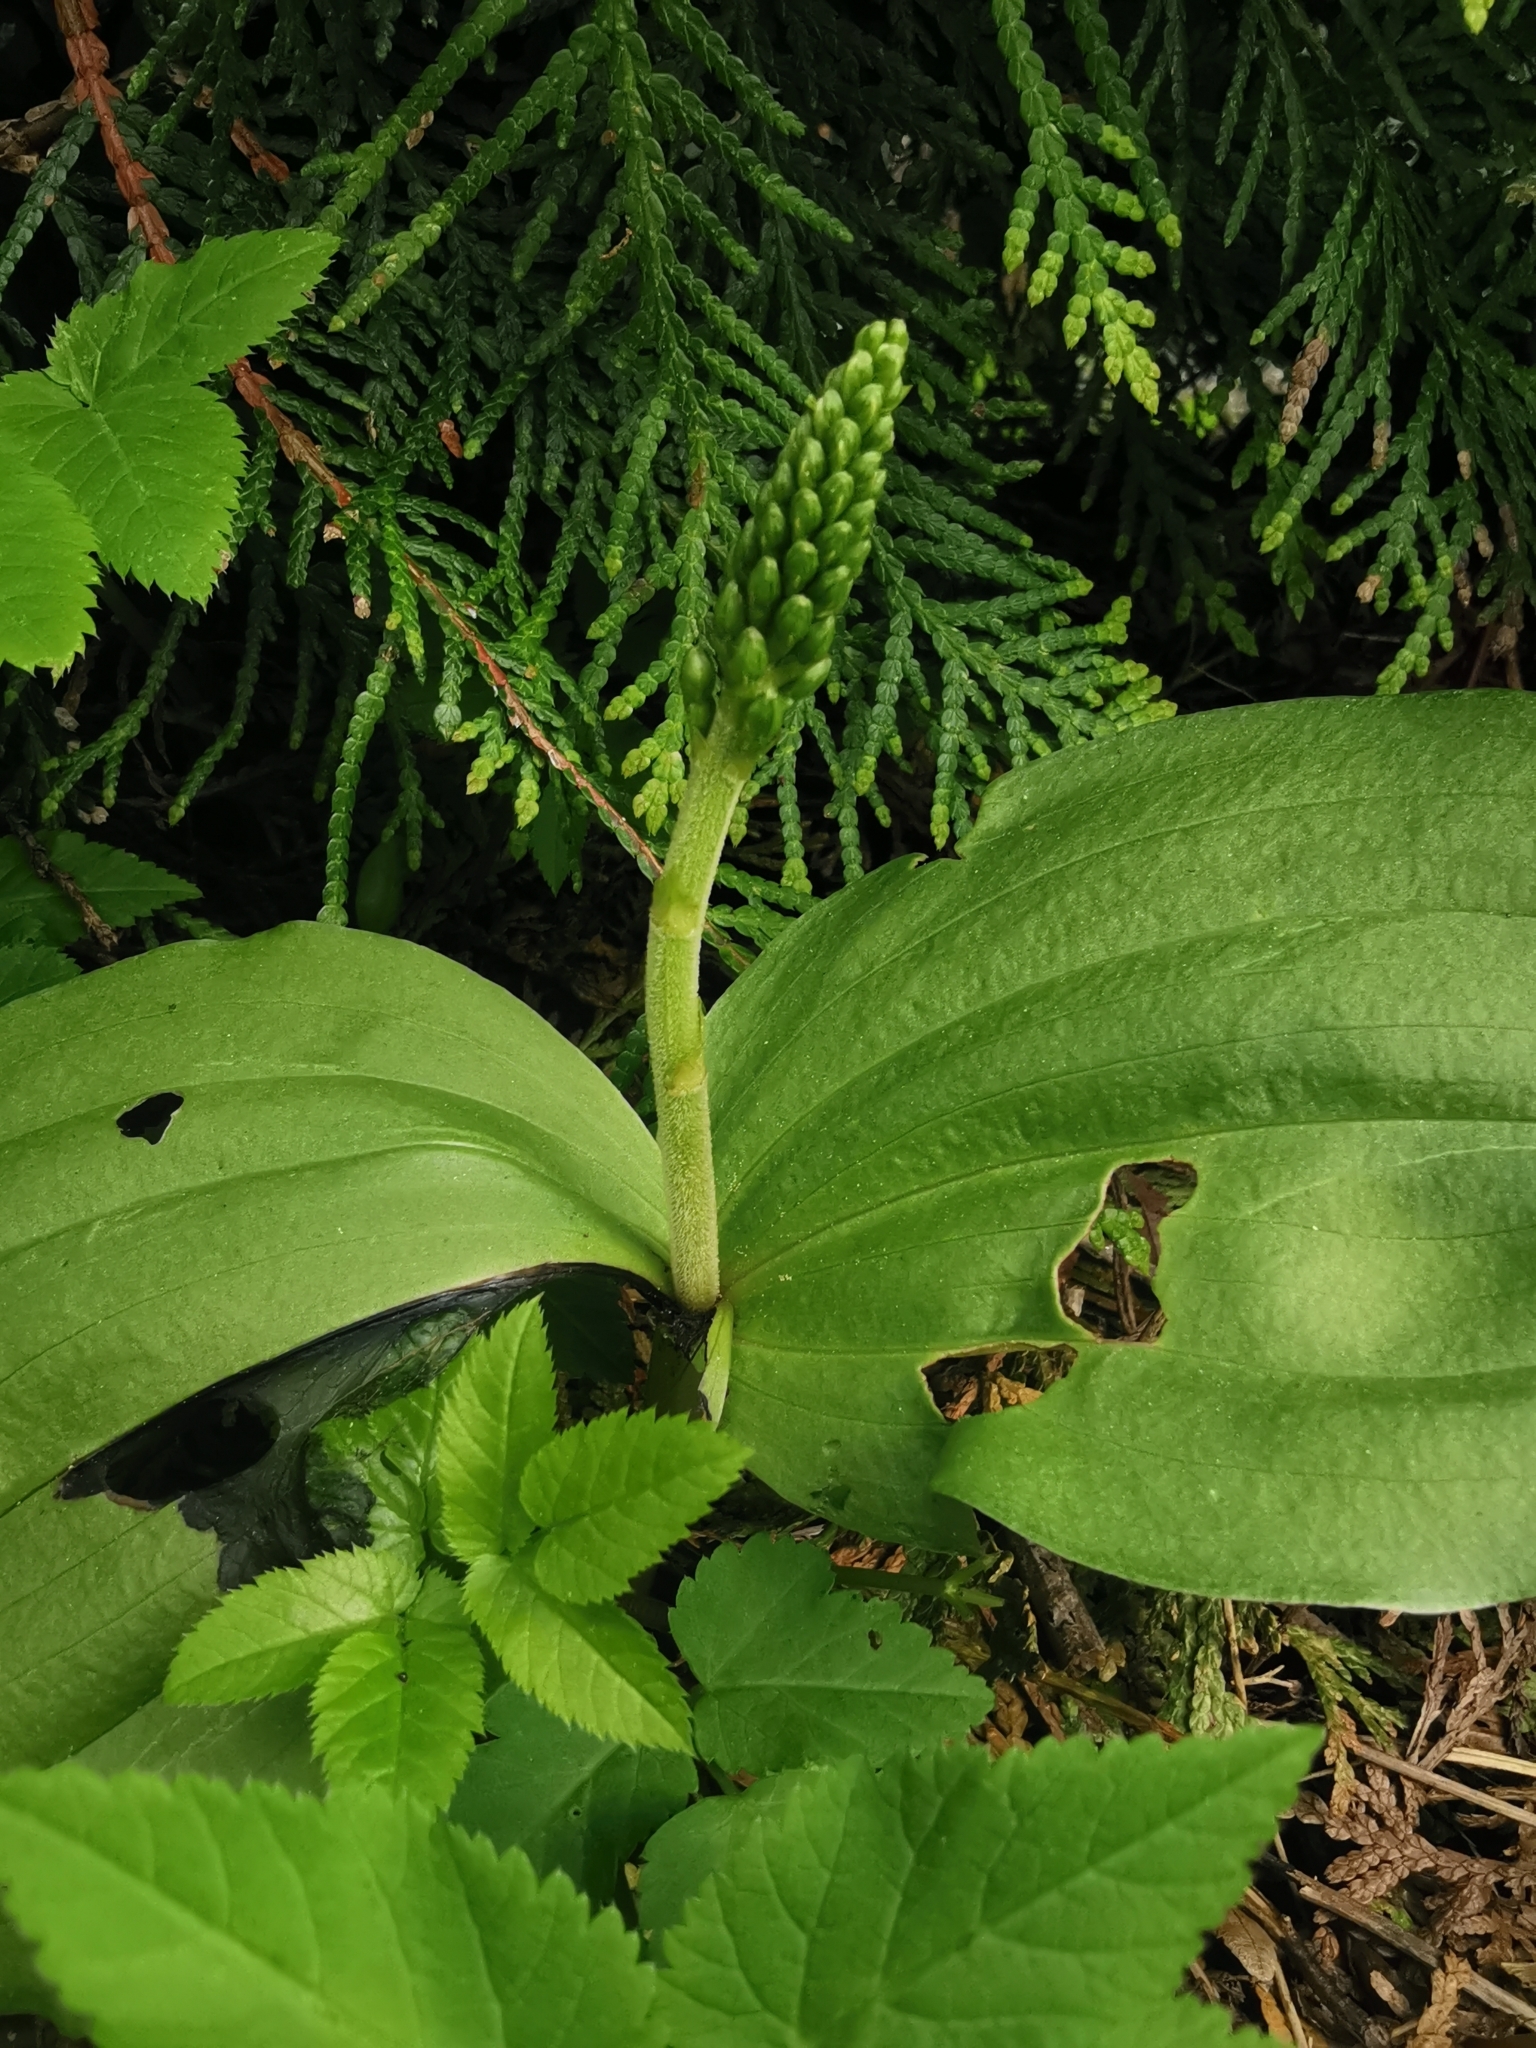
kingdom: Plantae
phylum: Tracheophyta
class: Liliopsida
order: Asparagales
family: Orchidaceae
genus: Neottia
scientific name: Neottia ovata
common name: Common twayblade
